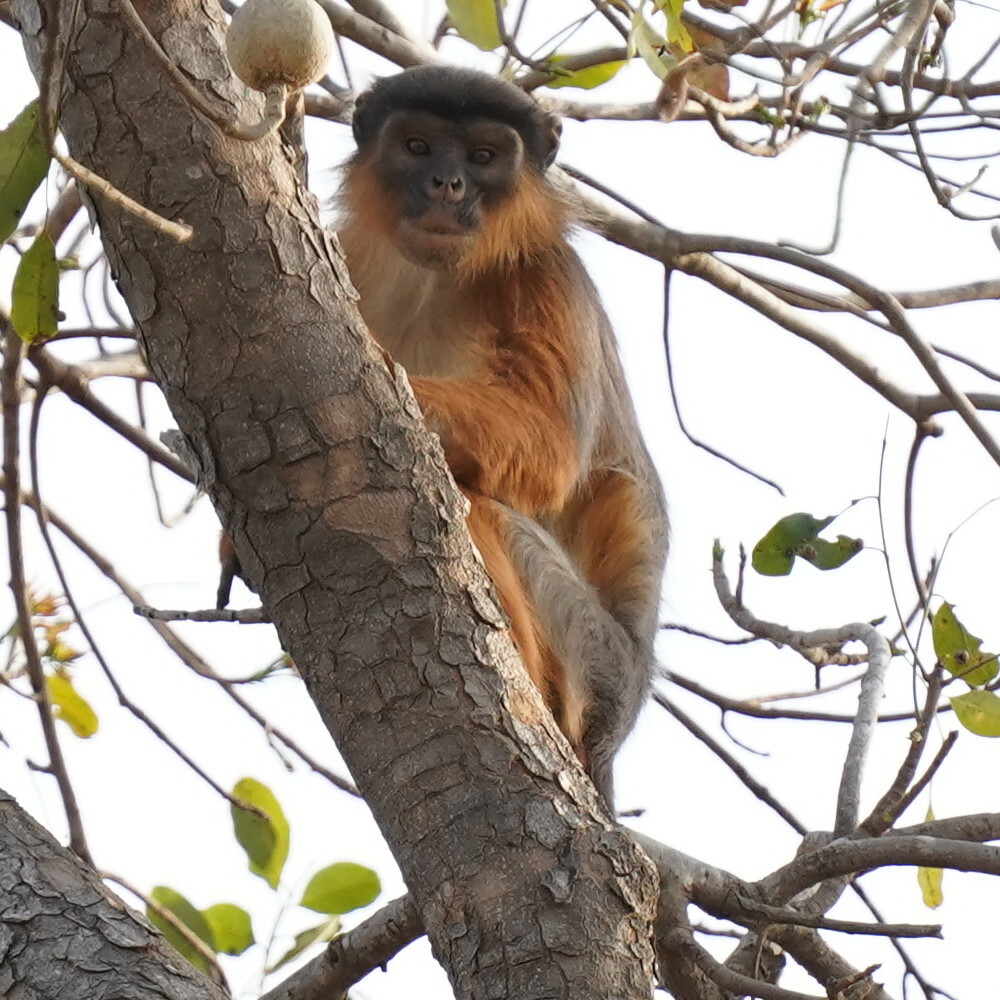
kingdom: Animalia
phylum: Chordata
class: Mammalia
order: Primates
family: Cercopithecidae
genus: Piliocolobus
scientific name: Piliocolobus badius
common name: Western red colobus
